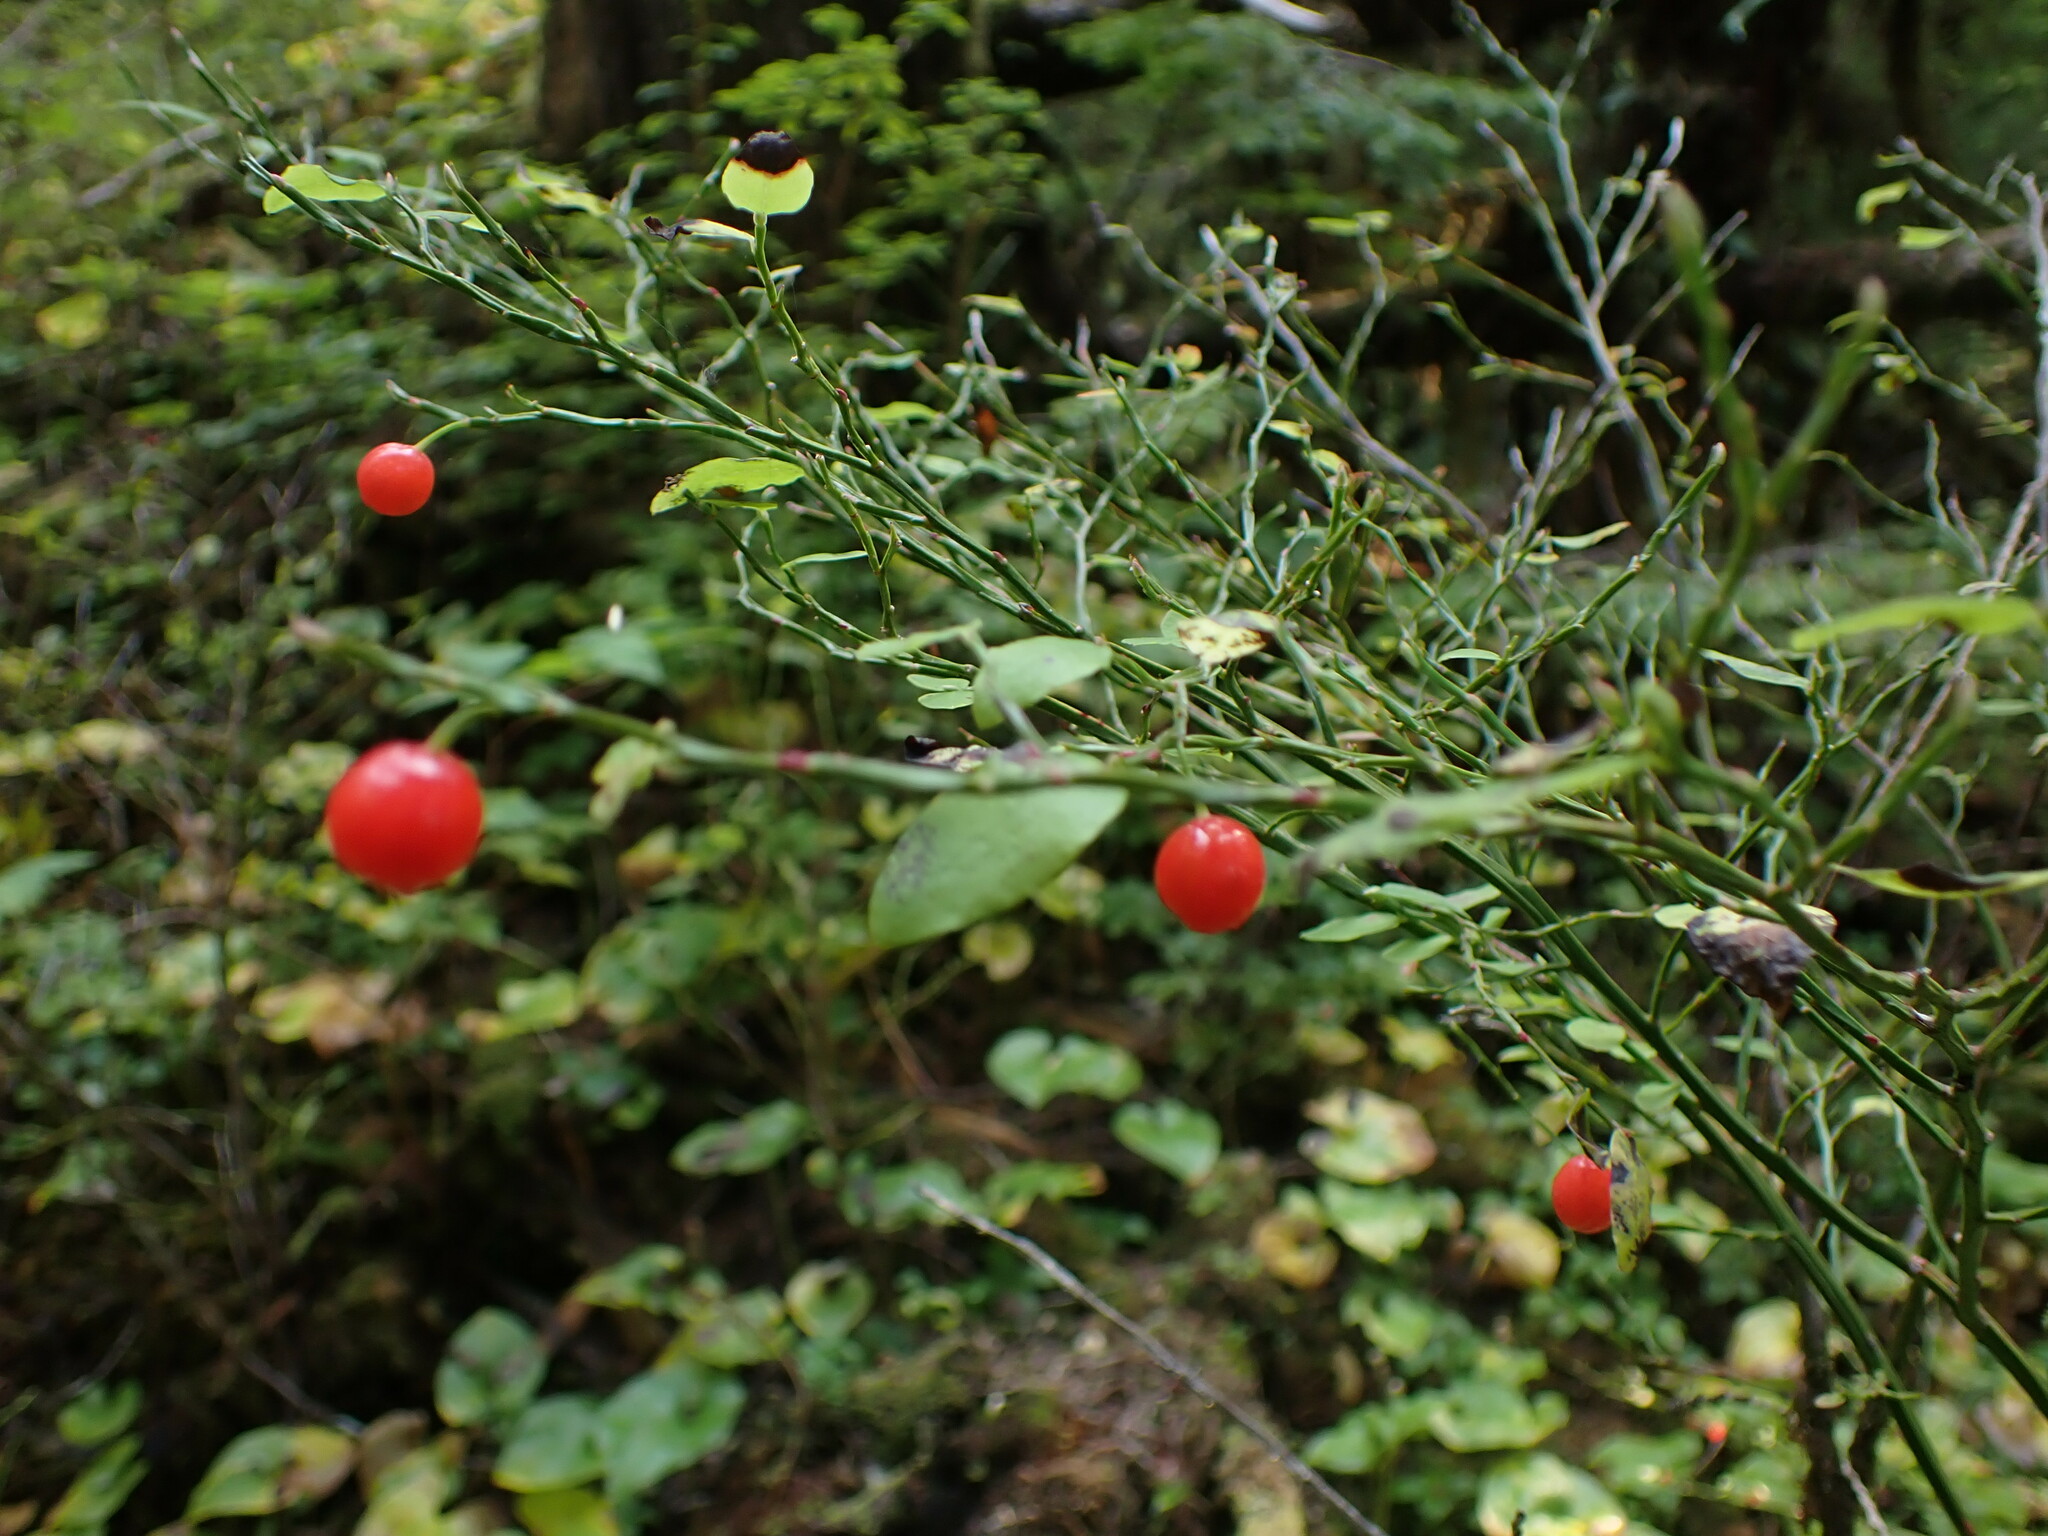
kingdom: Plantae
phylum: Tracheophyta
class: Magnoliopsida
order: Ericales
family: Ericaceae
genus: Vaccinium
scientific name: Vaccinium parvifolium
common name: Red-huckleberry
